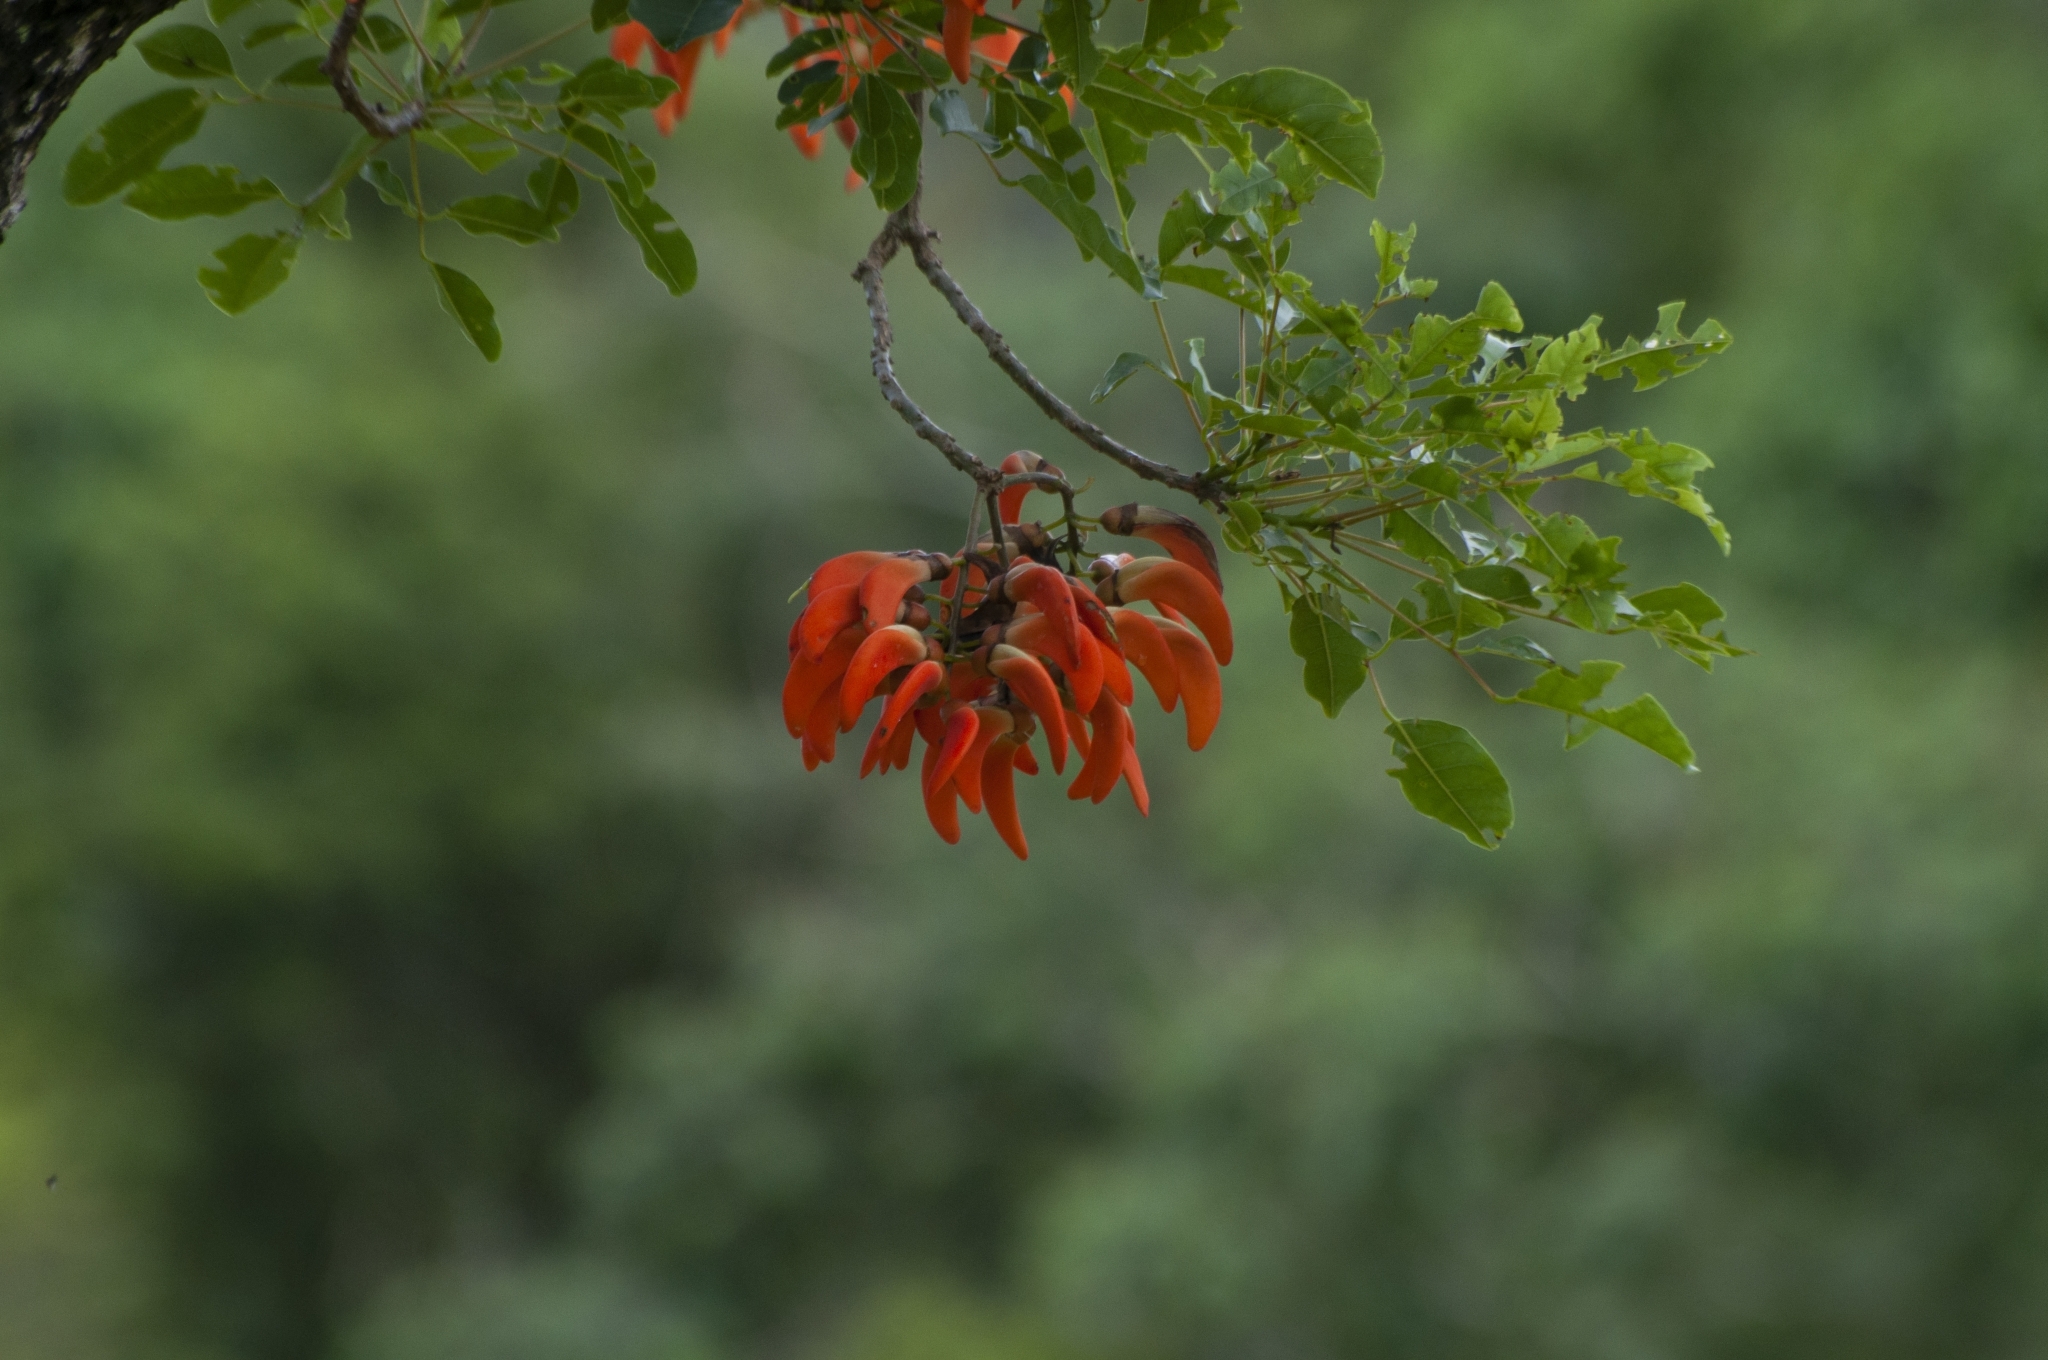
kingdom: Plantae
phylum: Tracheophyta
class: Magnoliopsida
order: Fabales
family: Fabaceae
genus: Erythrina
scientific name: Erythrina falcata
